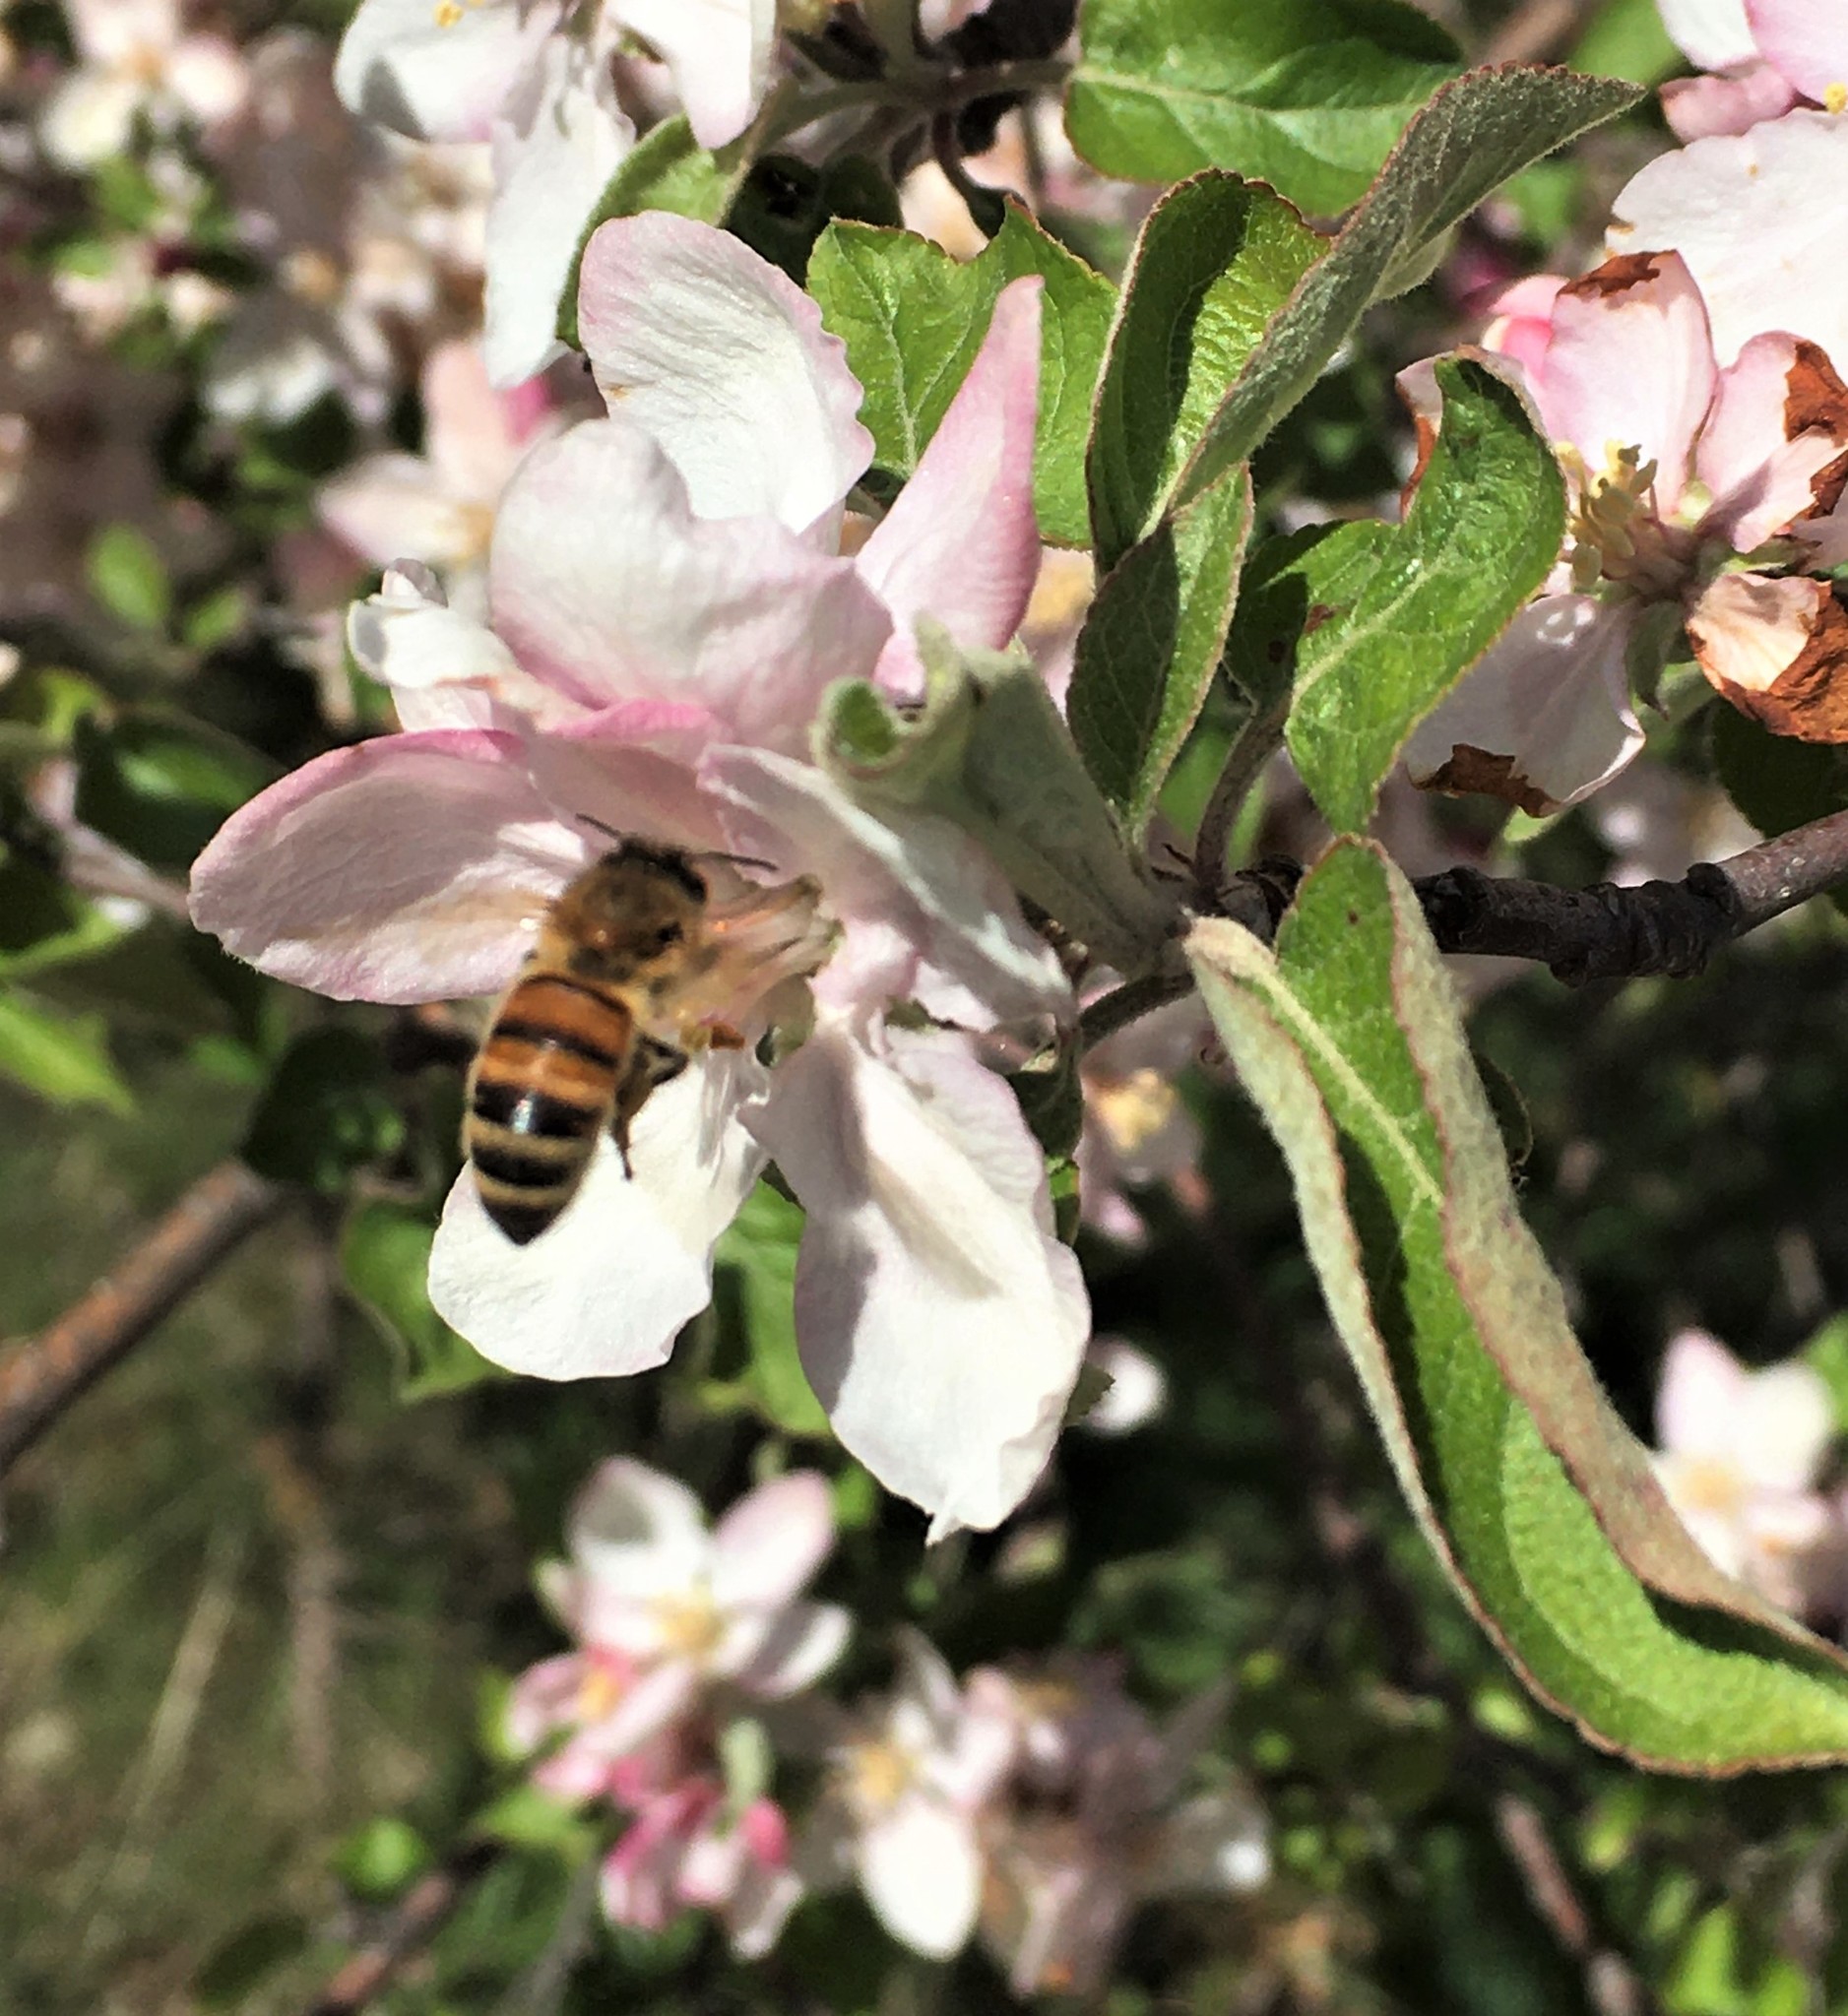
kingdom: Animalia
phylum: Arthropoda
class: Insecta
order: Hymenoptera
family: Apidae
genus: Apis
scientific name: Apis mellifera
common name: Honey bee
